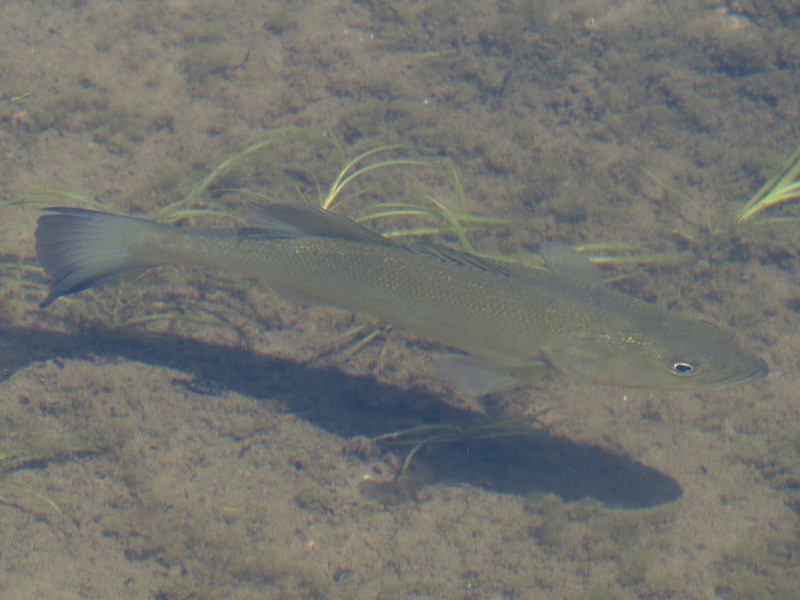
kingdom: Animalia
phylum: Chordata
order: Perciformes
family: Centrarchidae
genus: Micropterus
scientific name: Micropterus
